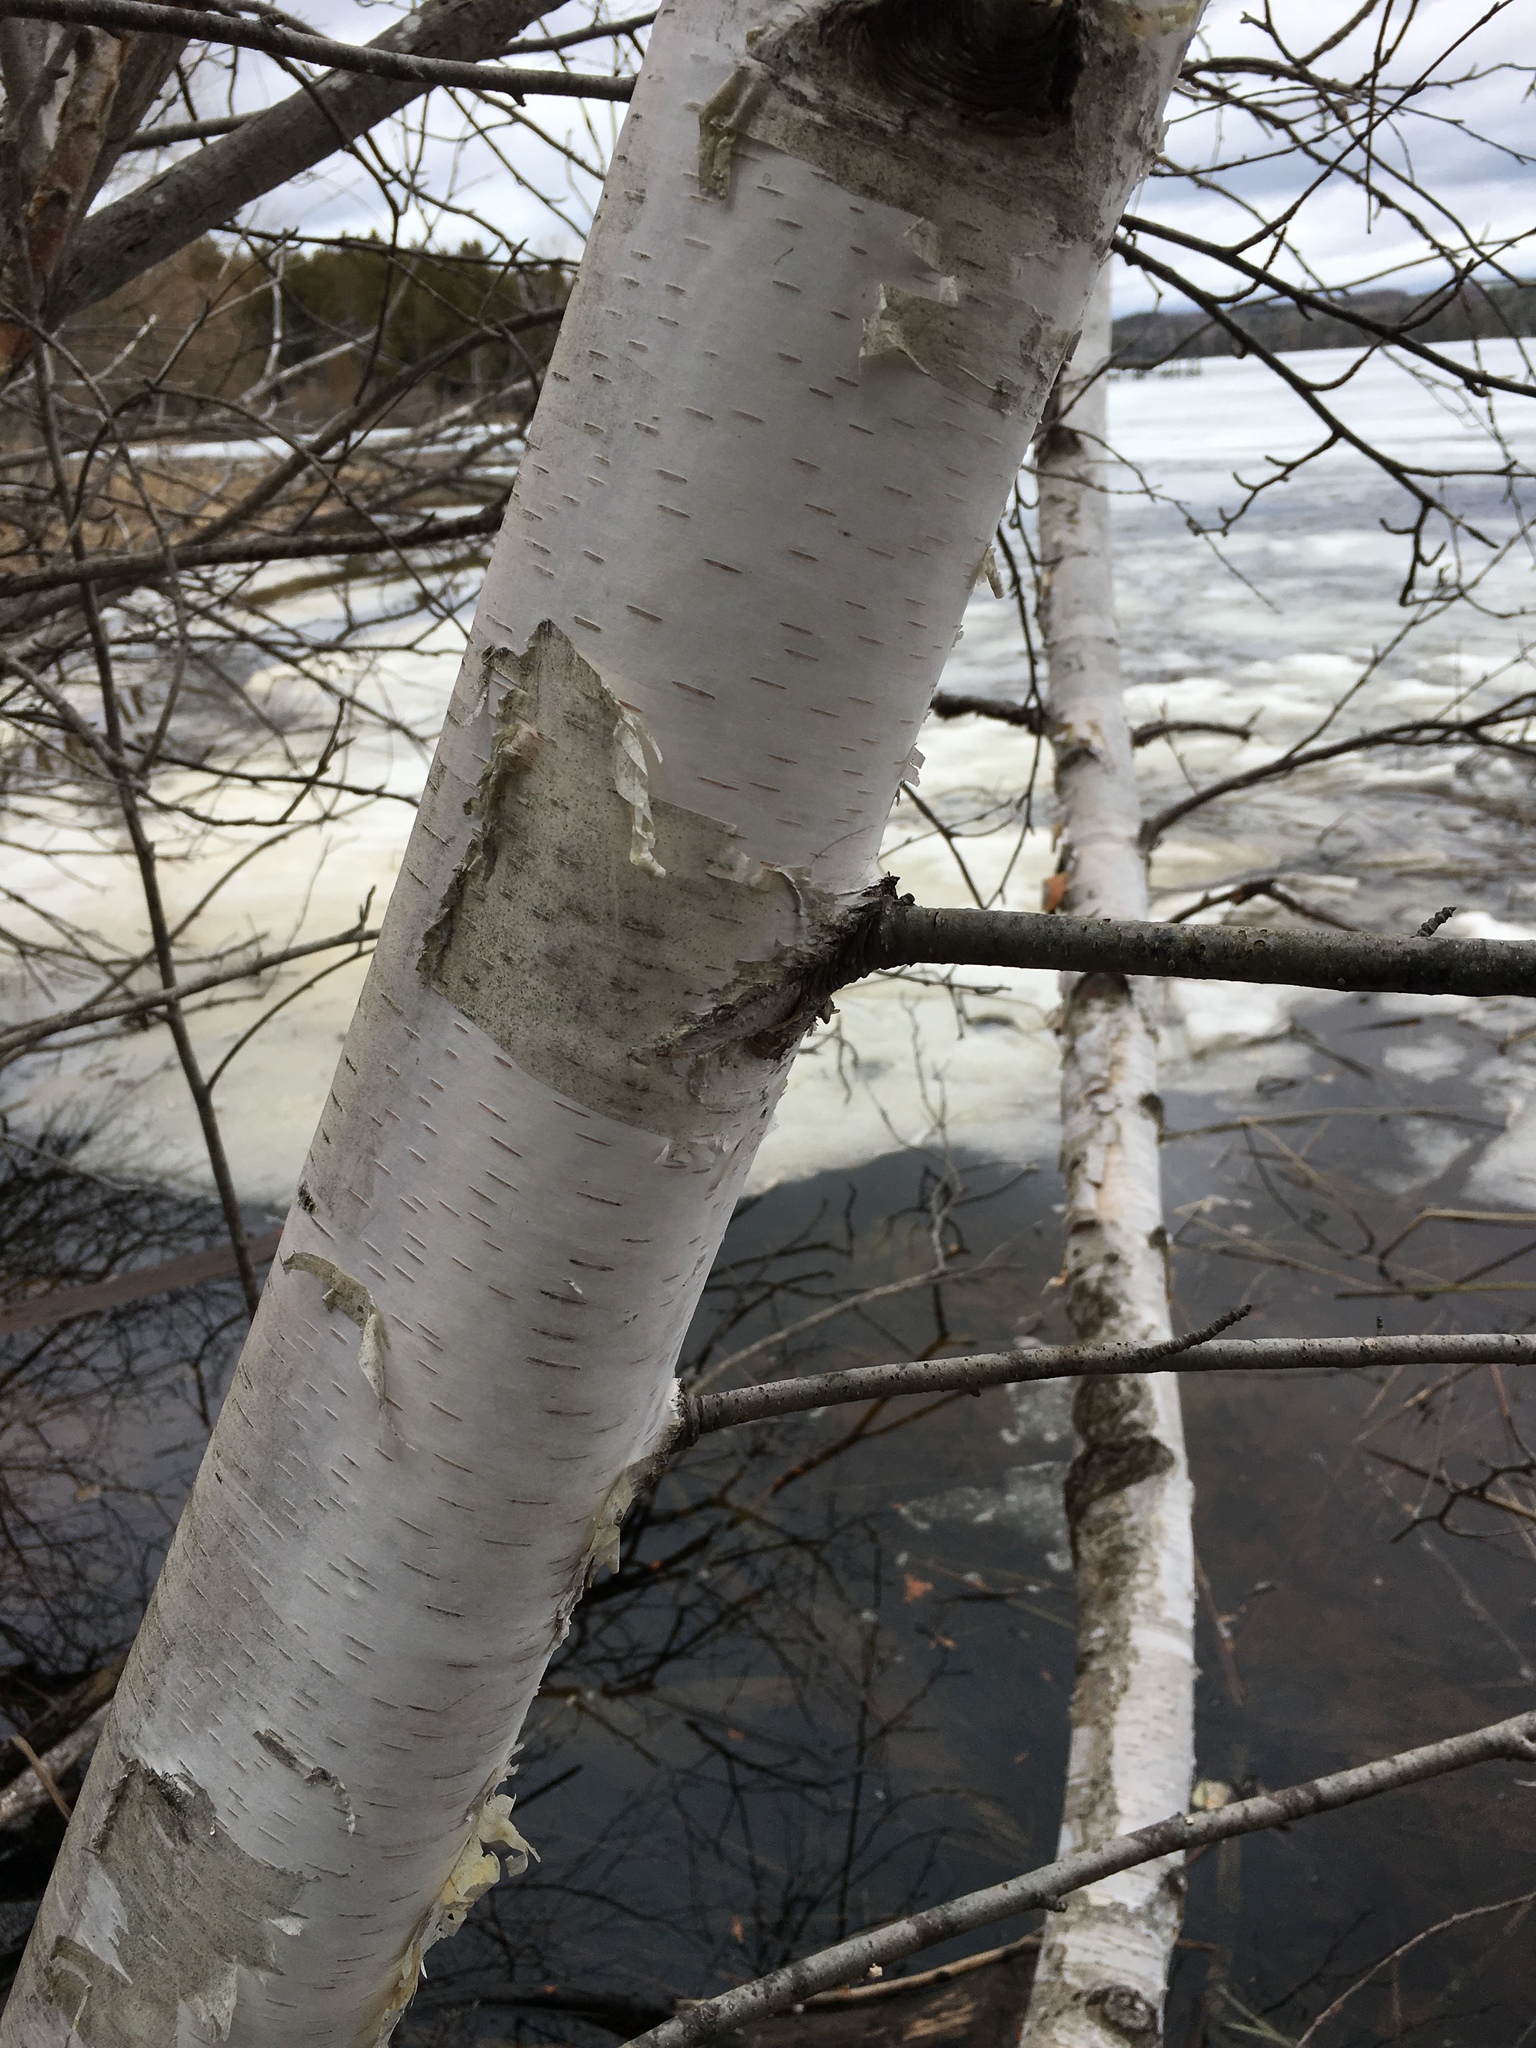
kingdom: Plantae
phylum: Tracheophyta
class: Magnoliopsida
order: Fagales
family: Betulaceae
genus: Betula
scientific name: Betula papyrifera
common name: Paper birch
